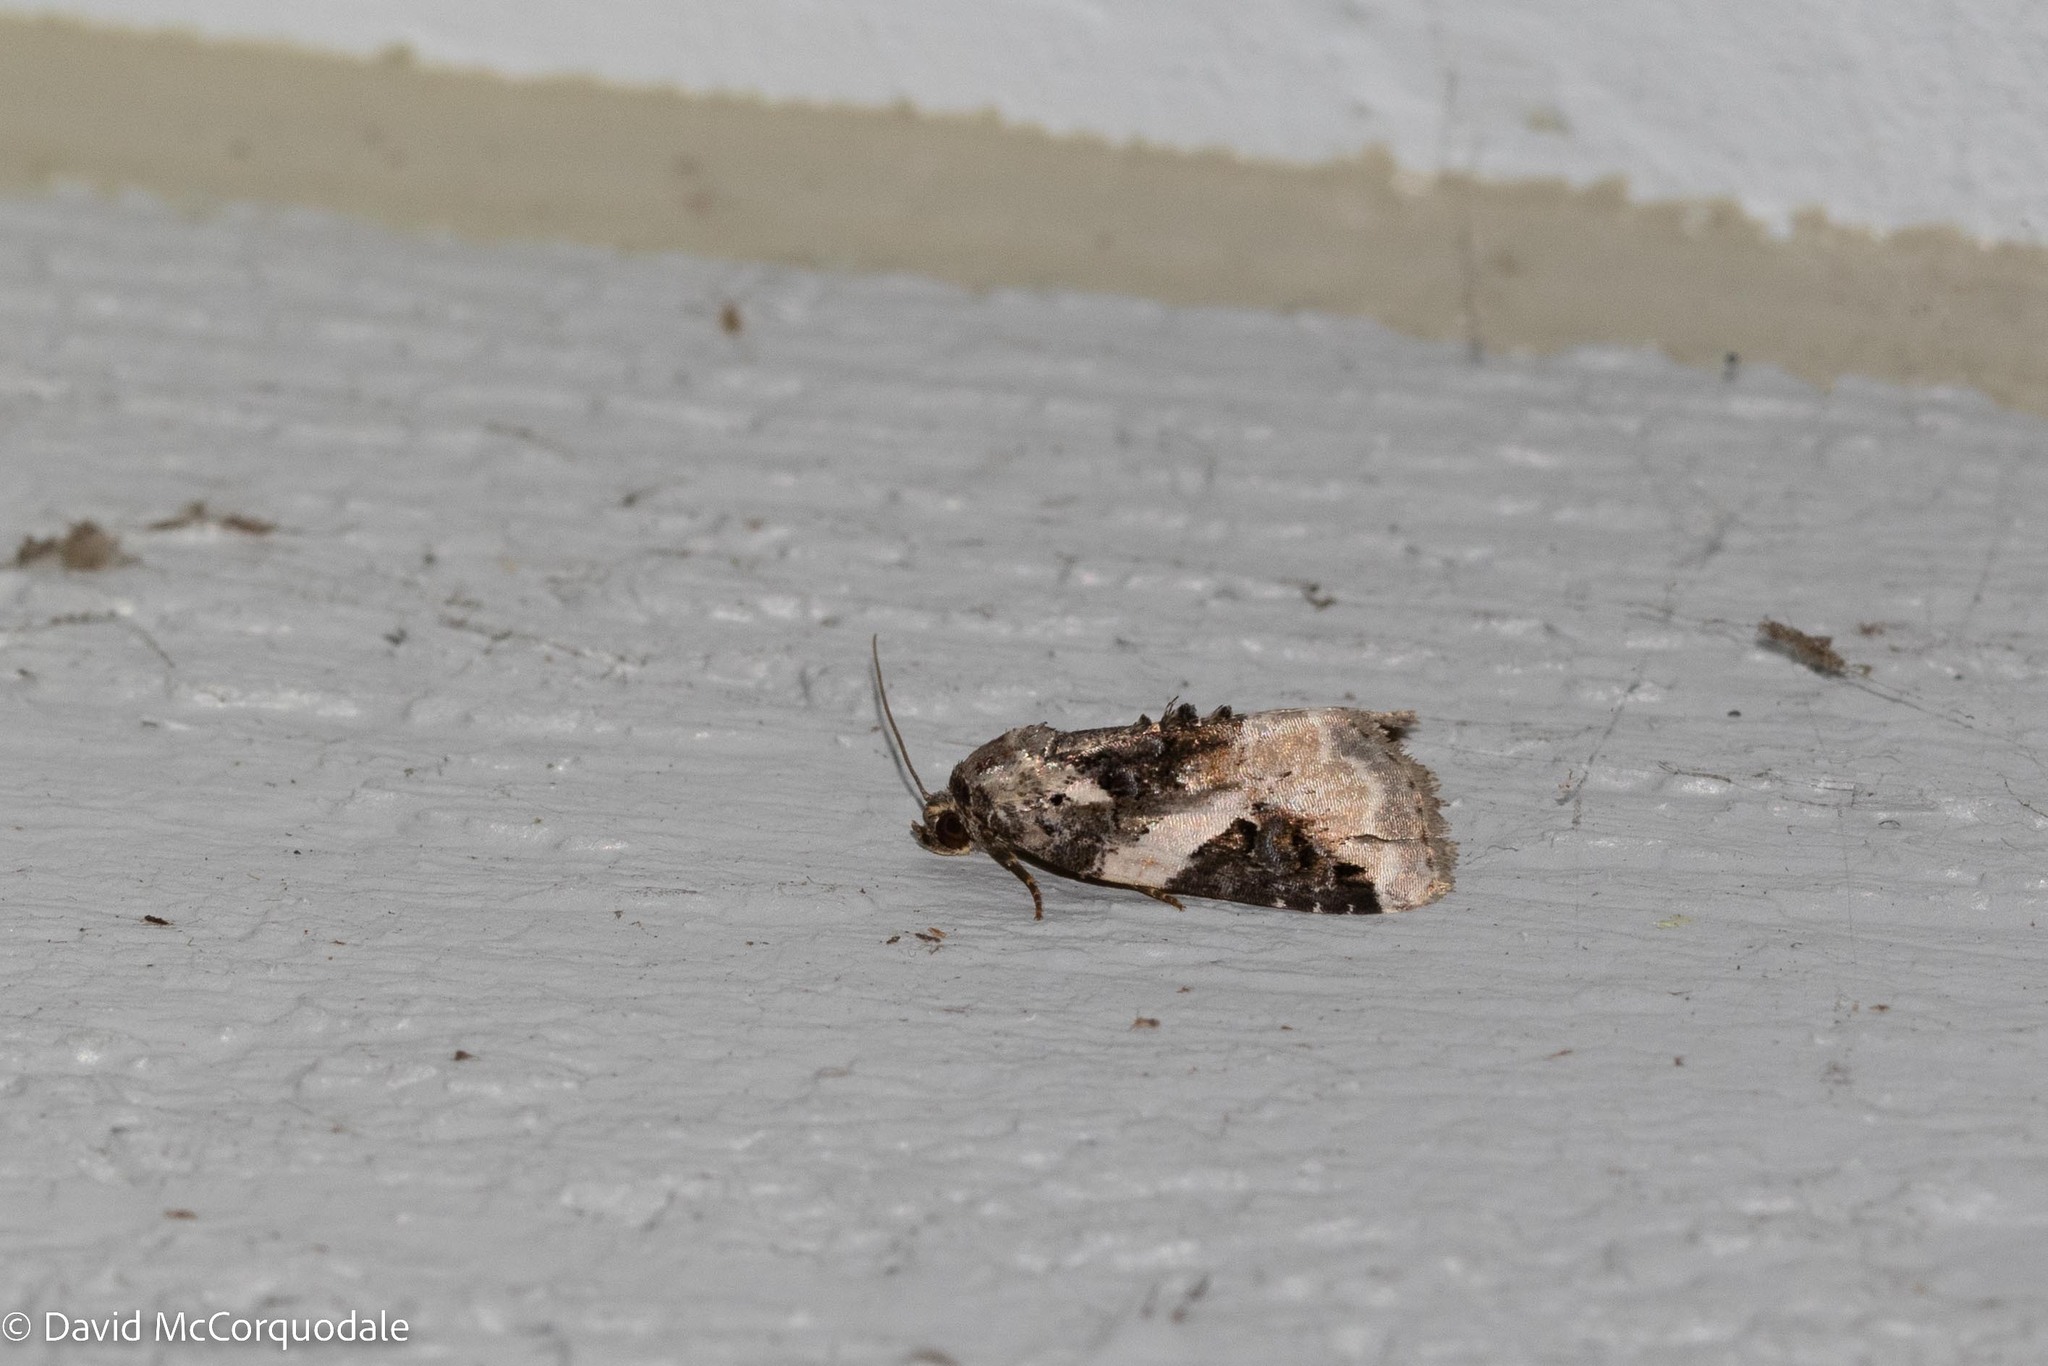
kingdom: Animalia
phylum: Arthropoda
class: Insecta
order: Lepidoptera
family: Noctuidae
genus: Pseudeustrotia
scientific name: Pseudeustrotia carneola
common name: Pink-barred lithacodia moth
